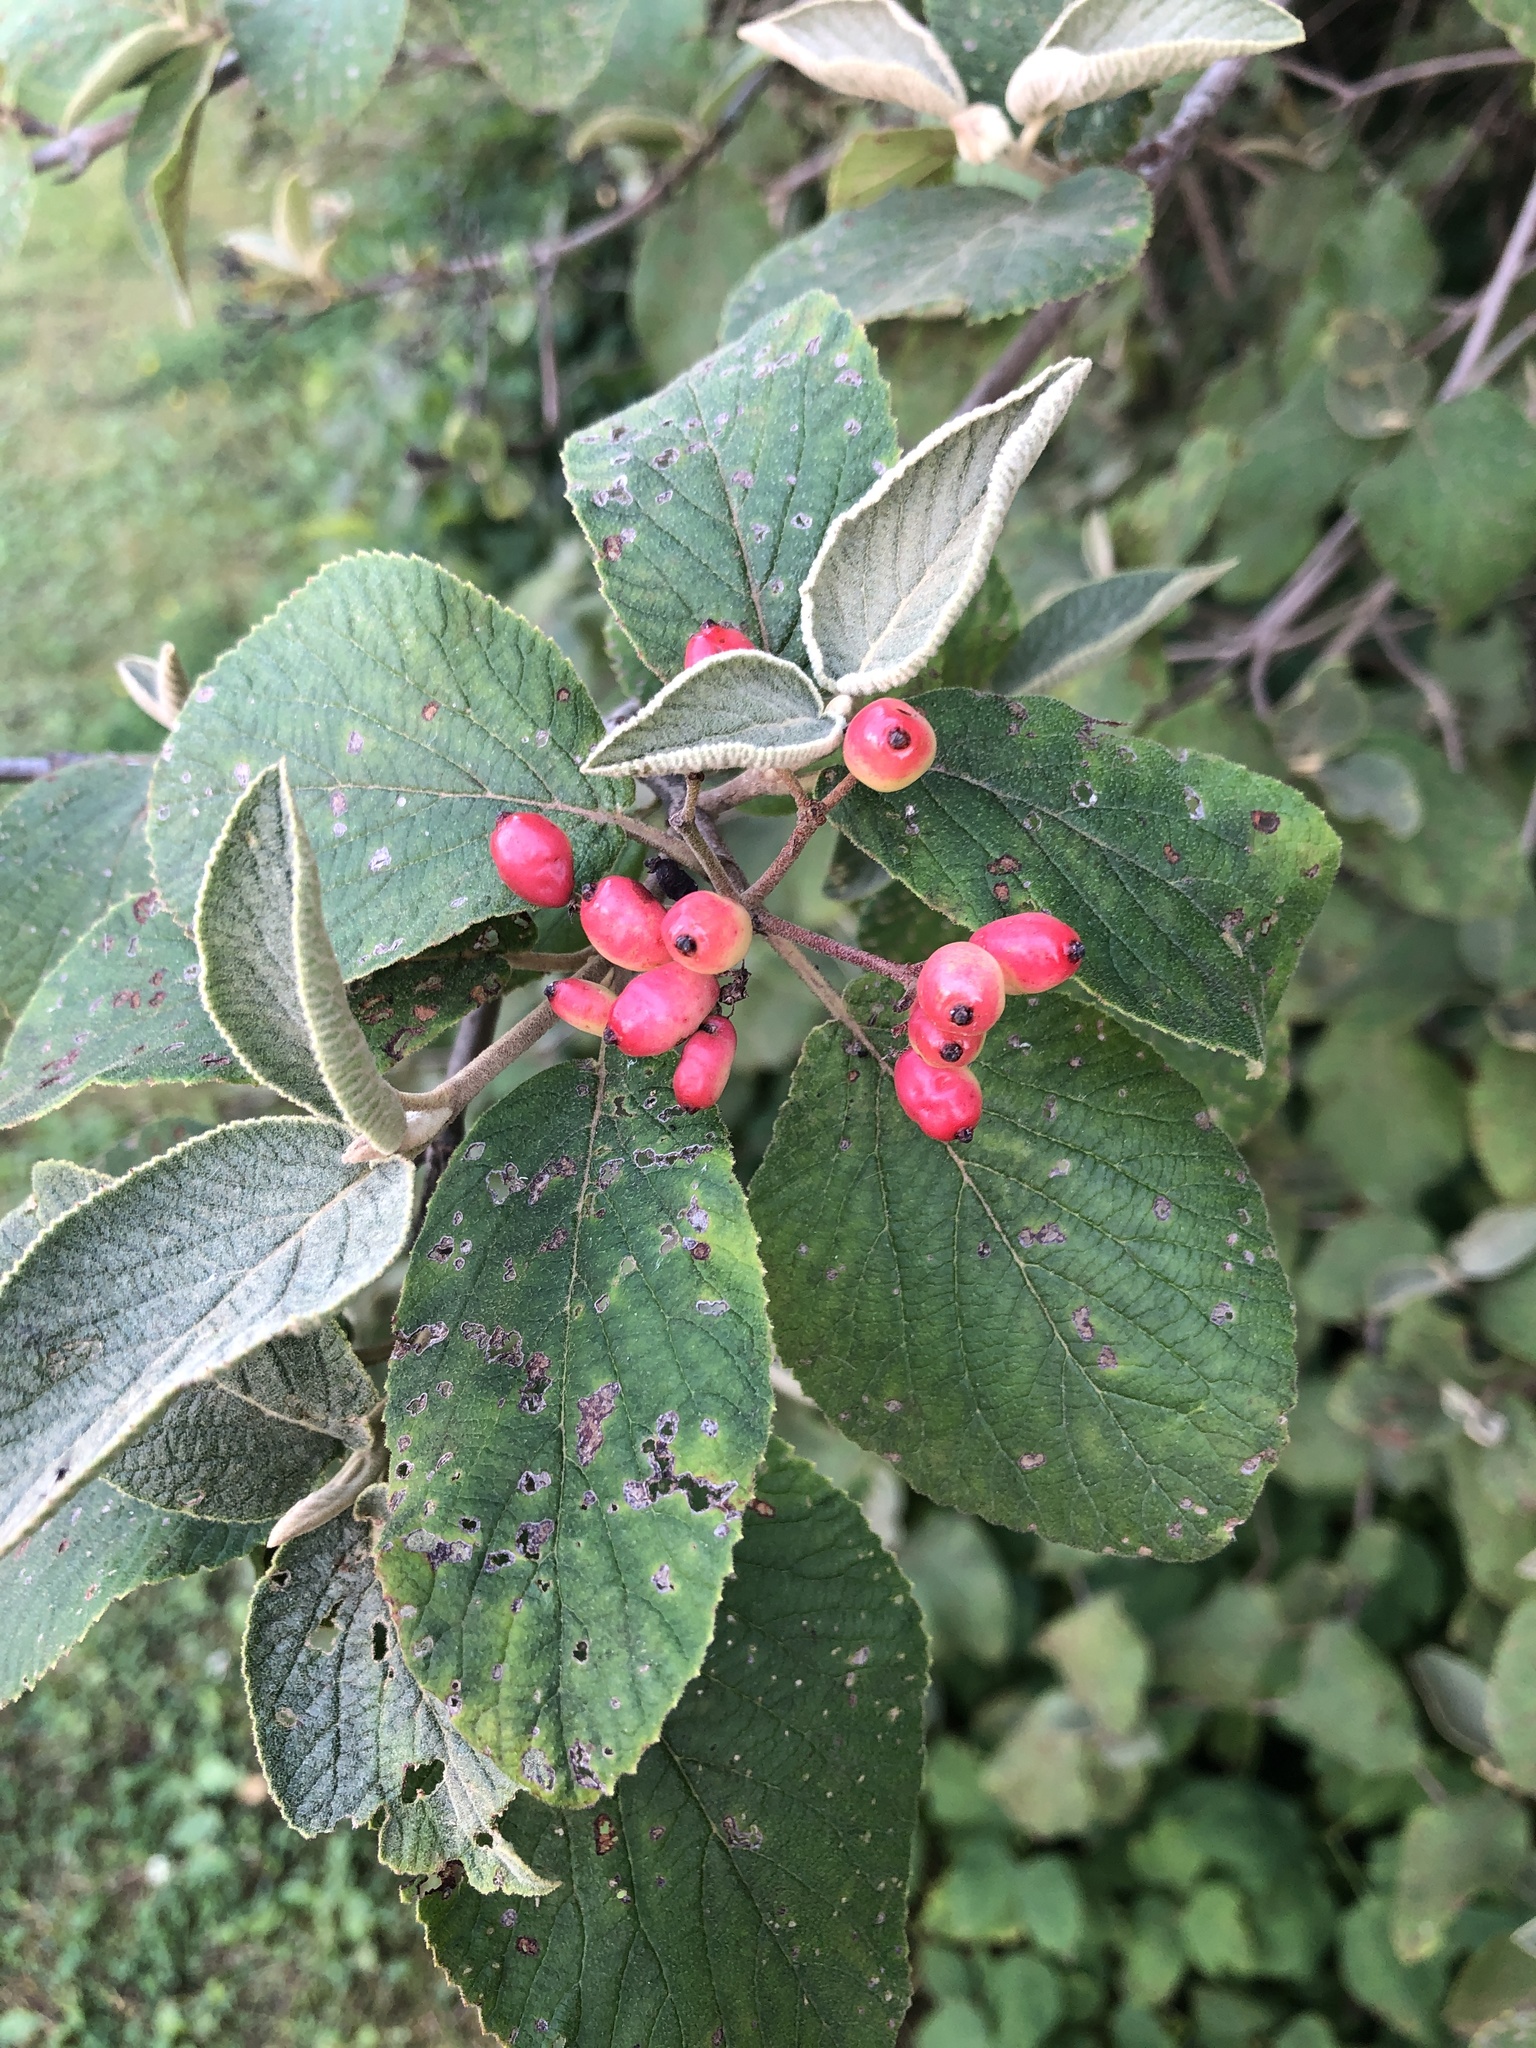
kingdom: Plantae
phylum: Tracheophyta
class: Magnoliopsida
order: Dipsacales
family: Viburnaceae
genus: Viburnum
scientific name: Viburnum lantana
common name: Wayfaring tree
